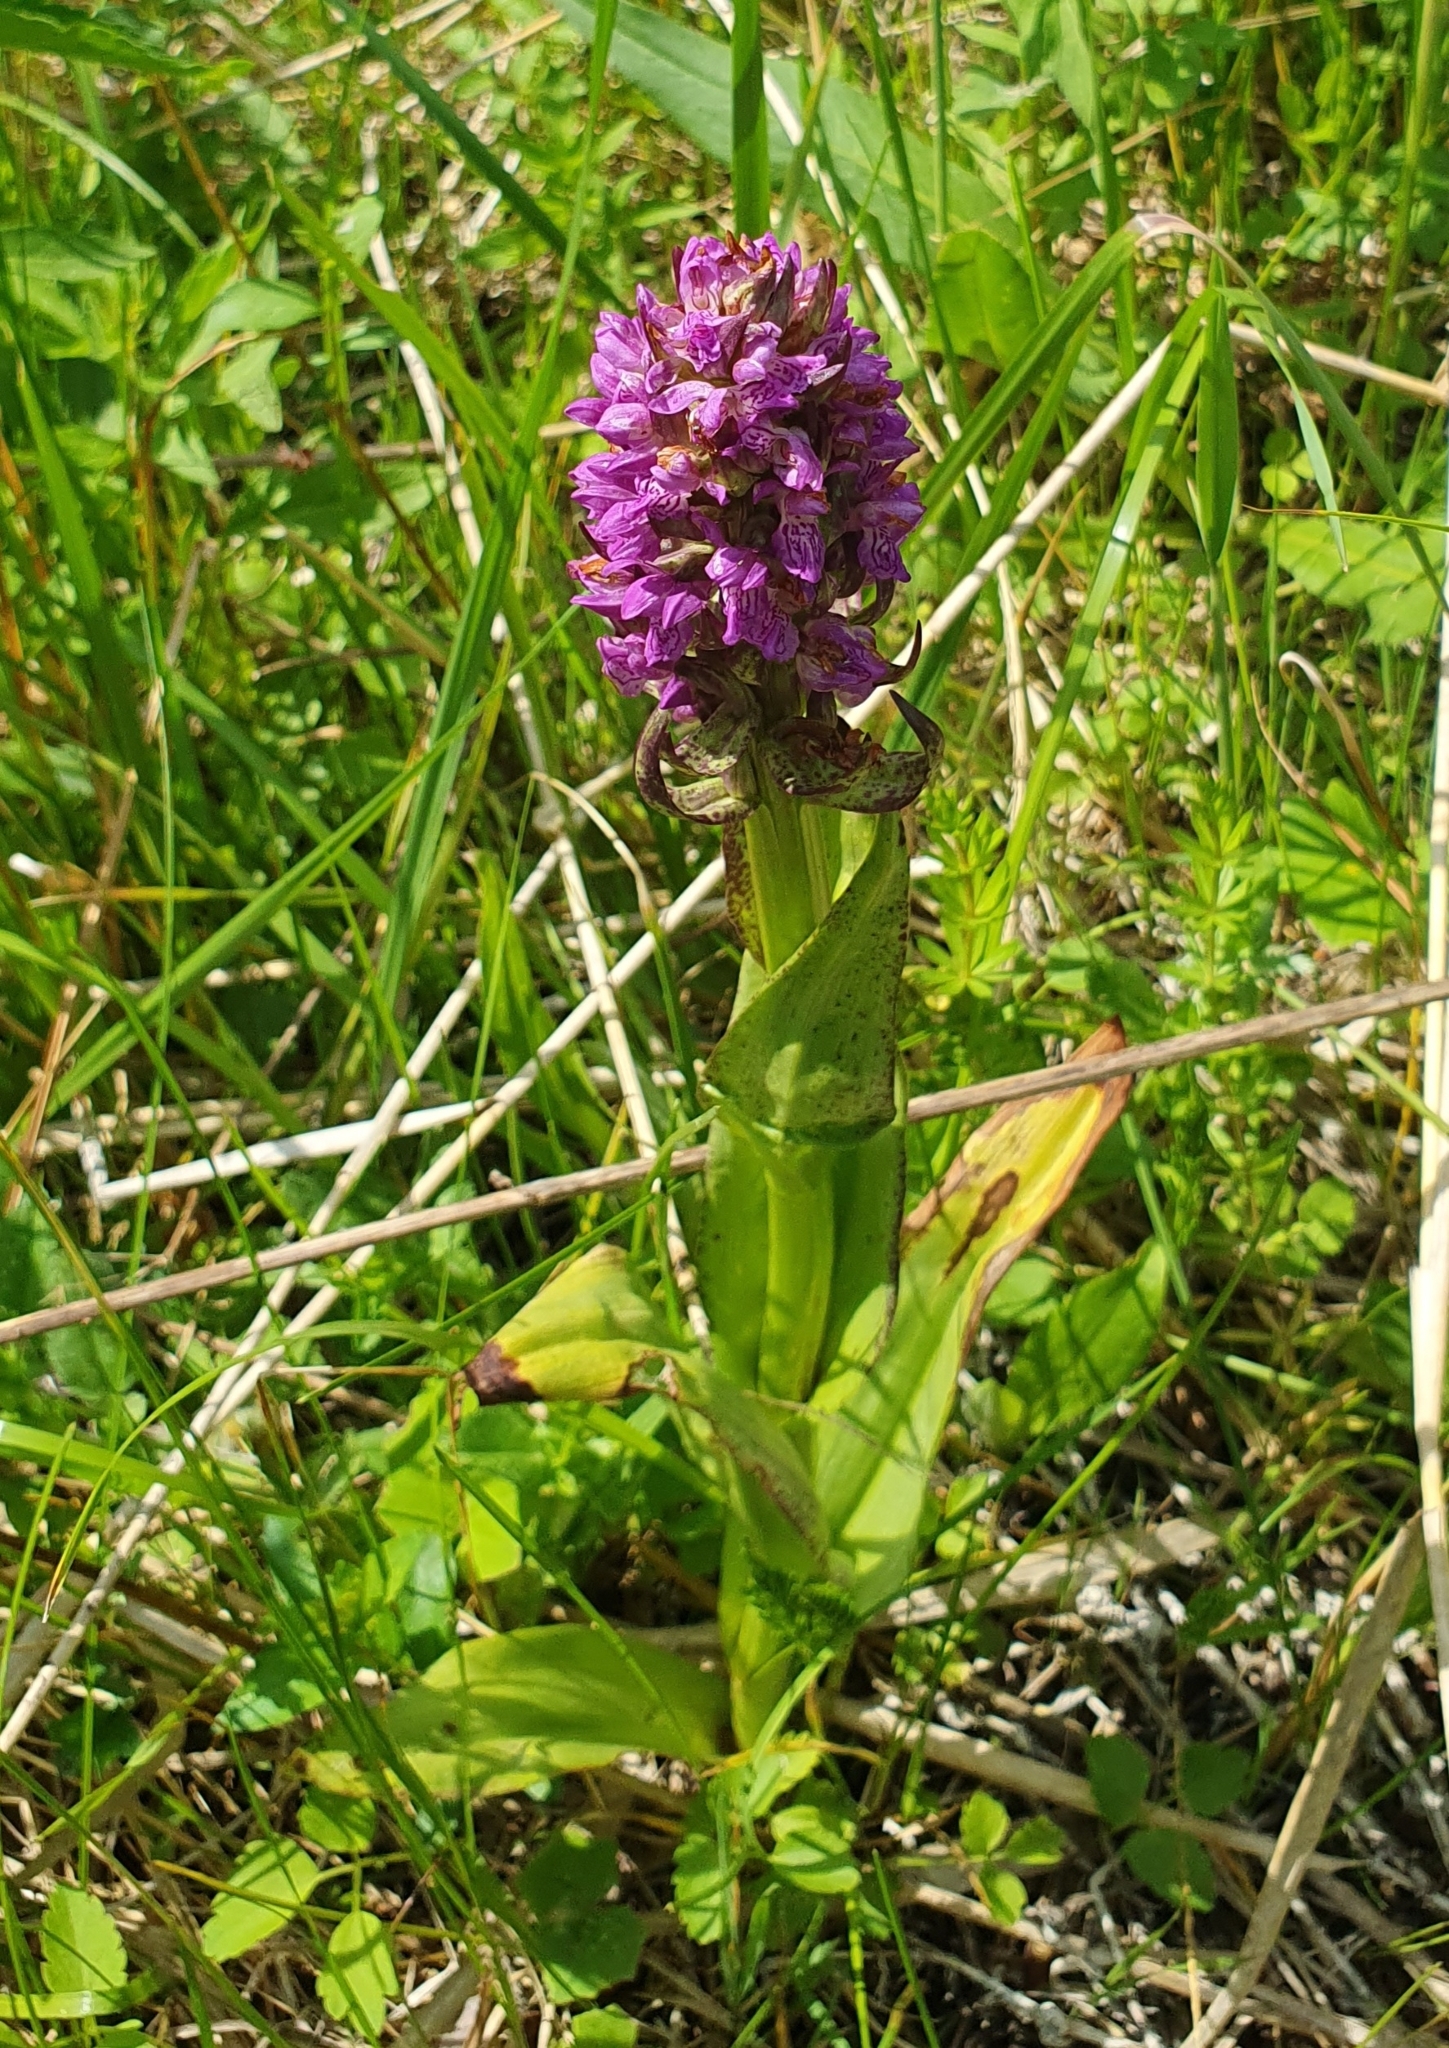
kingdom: Plantae
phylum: Tracheophyta
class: Liliopsida
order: Asparagales
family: Orchidaceae
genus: Dactylorhiza
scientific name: Dactylorhiza incarnata
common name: Early marsh-orchid
